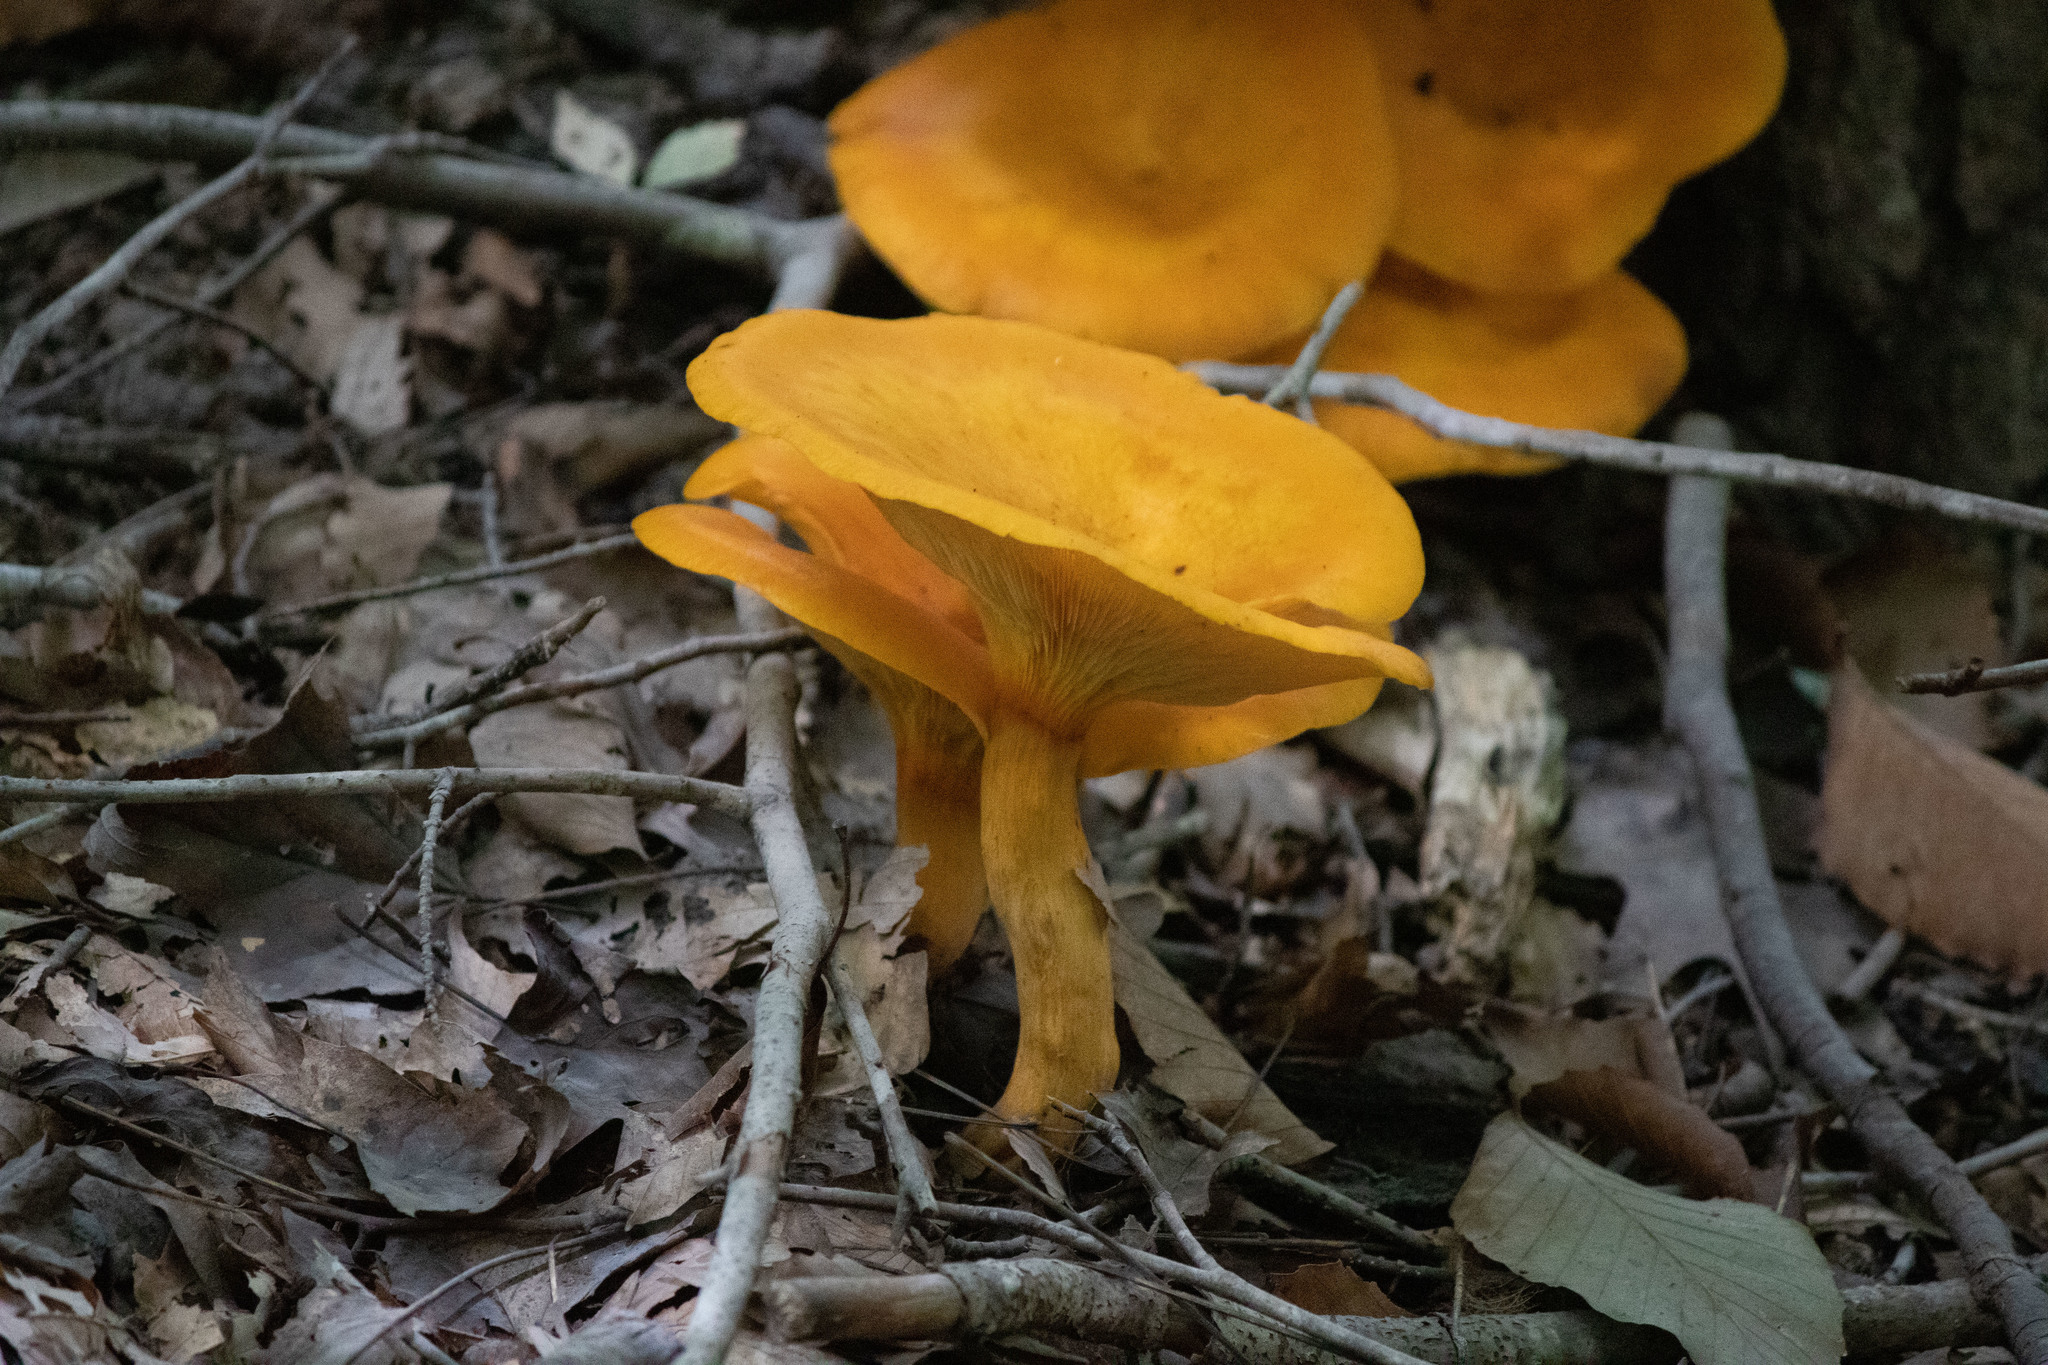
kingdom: Fungi
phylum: Basidiomycota
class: Agaricomycetes
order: Agaricales
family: Omphalotaceae
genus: Omphalotus
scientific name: Omphalotus illudens
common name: Jack o lantern
